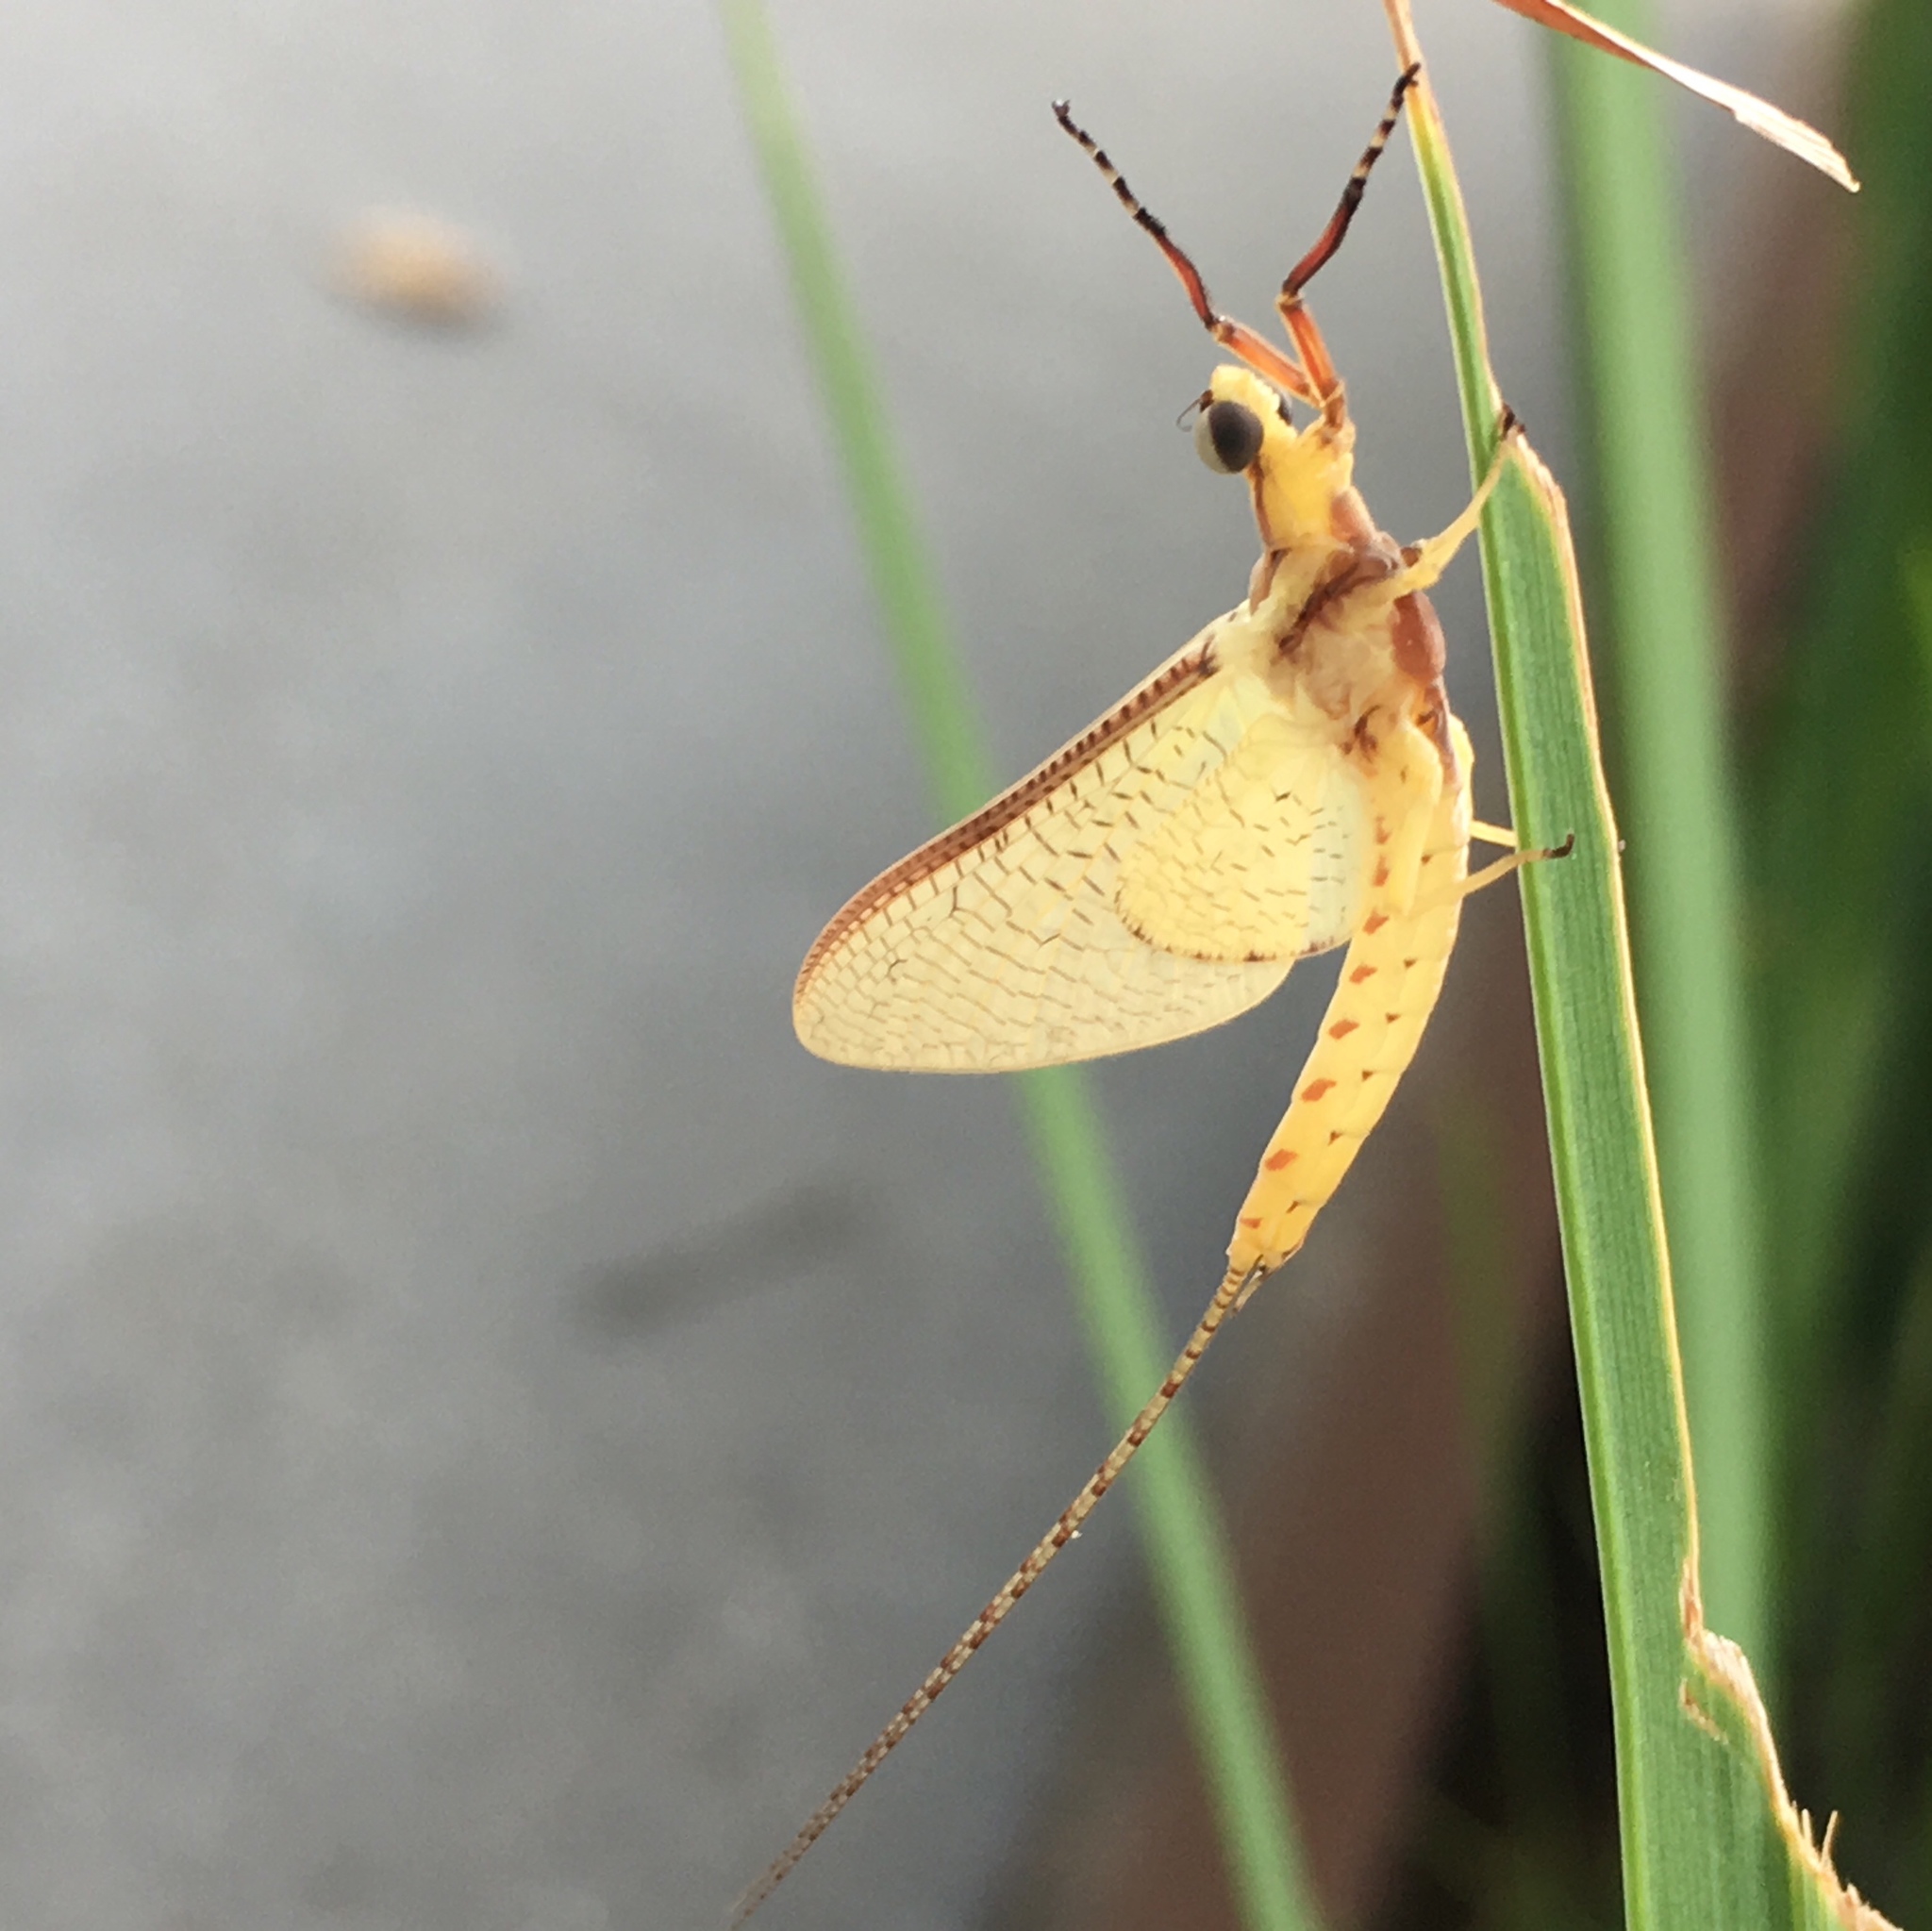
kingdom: Animalia
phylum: Arthropoda
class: Insecta
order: Ephemeroptera
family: Ephemeridae
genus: Hexagenia
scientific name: Hexagenia limbata
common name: Giant mayfly
